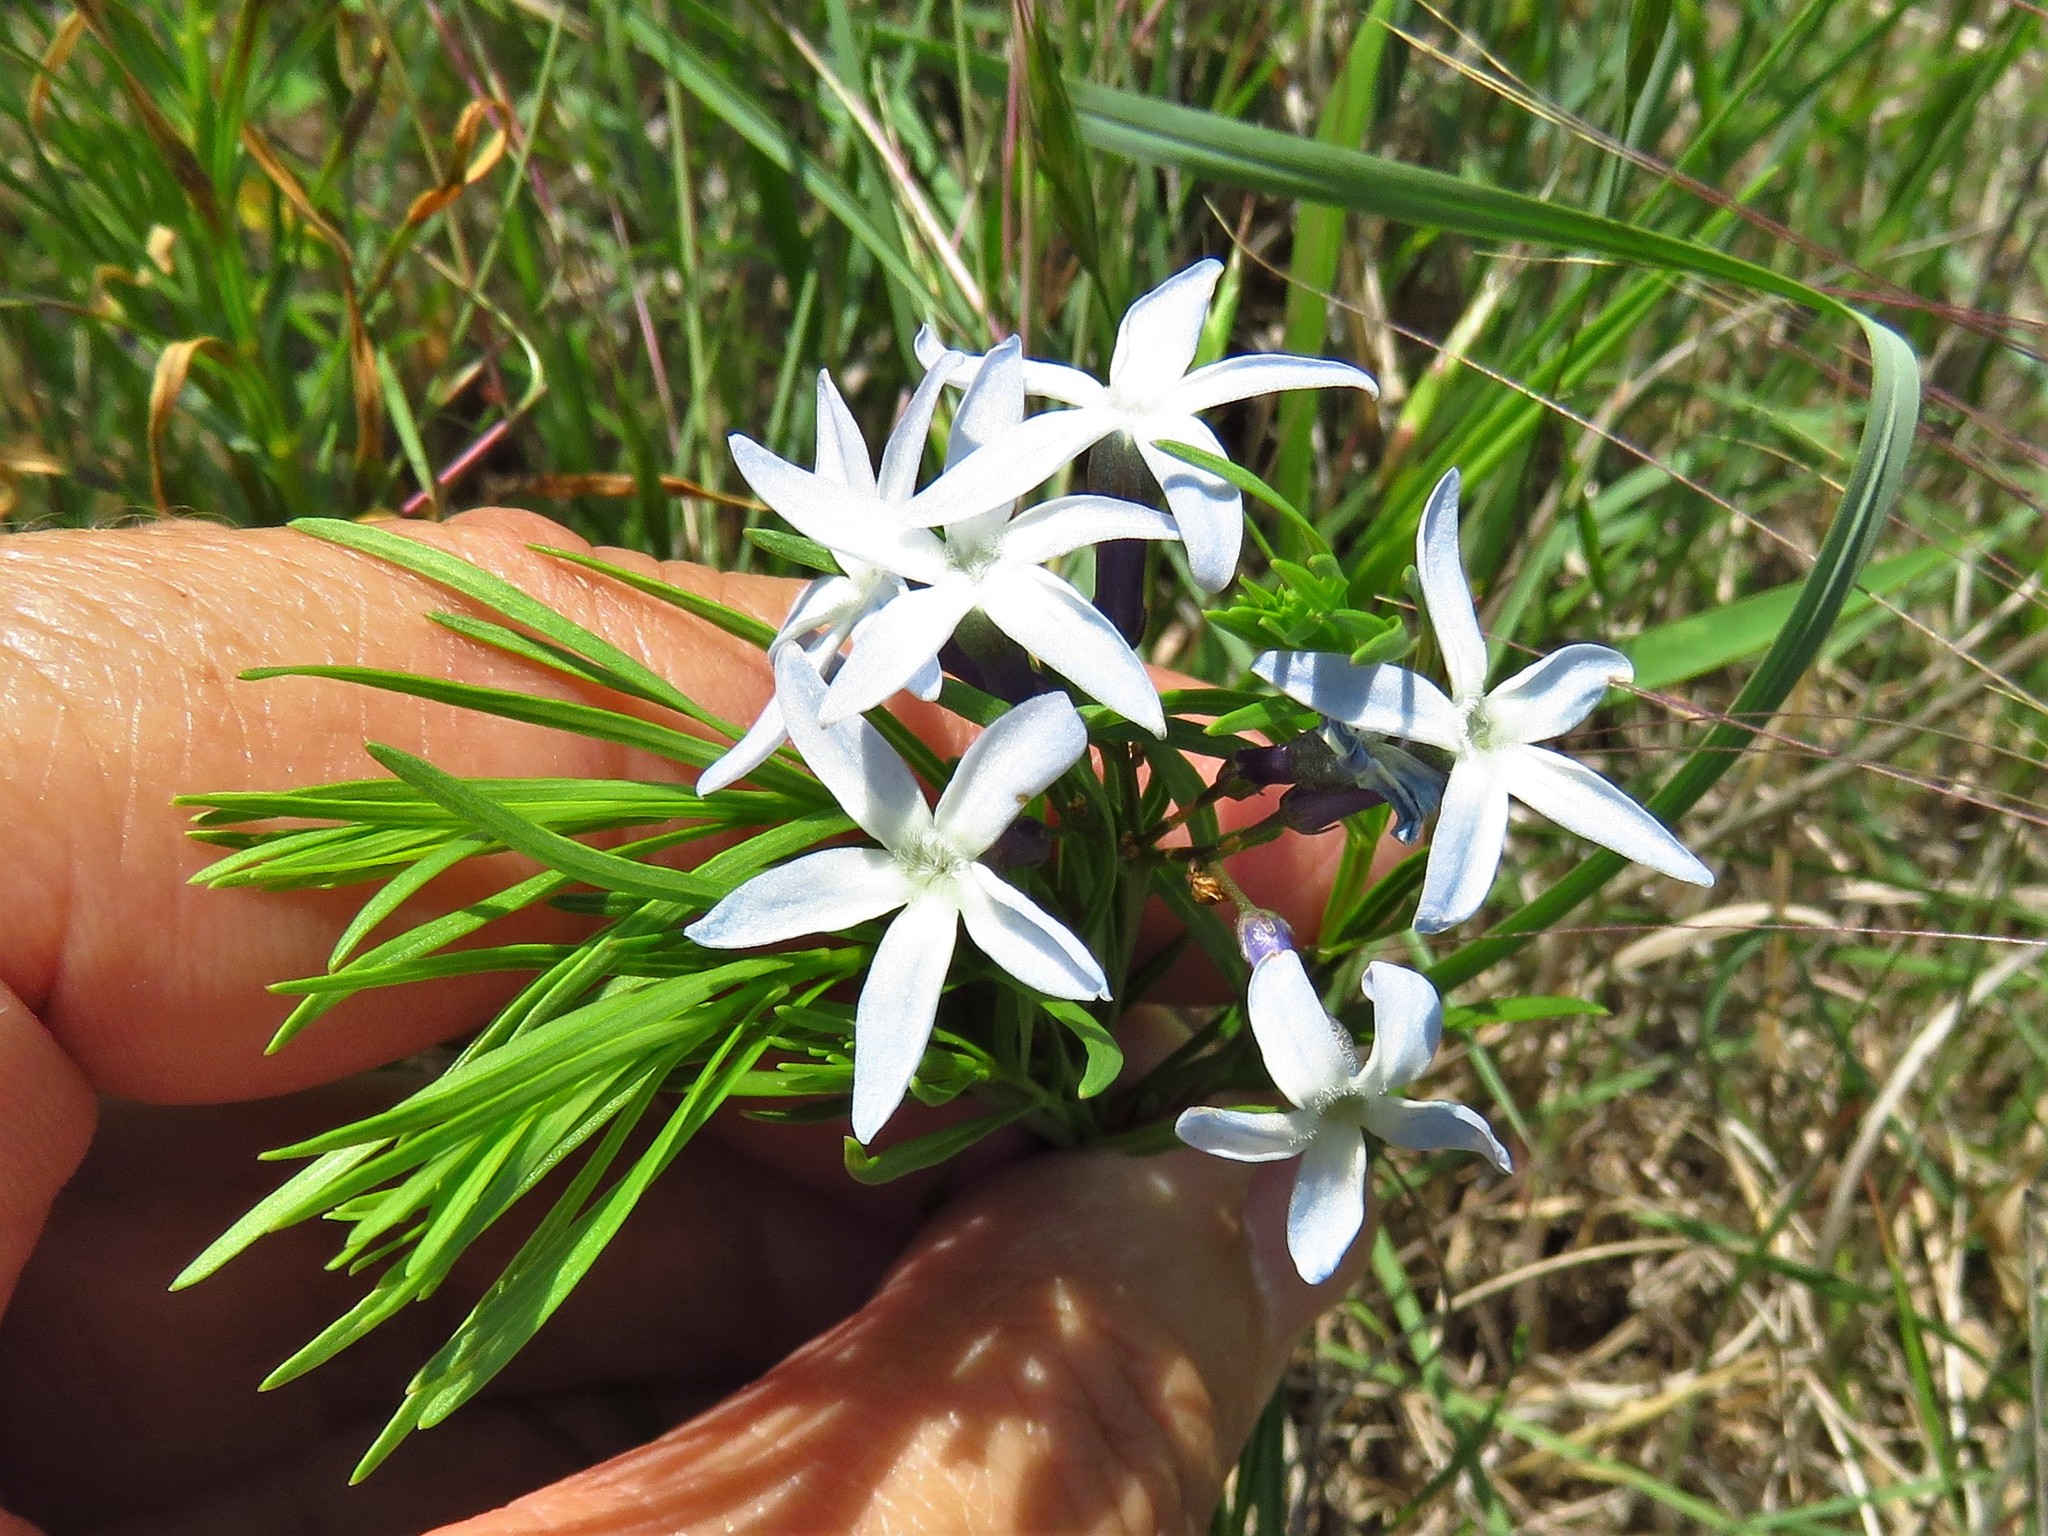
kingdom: Plantae
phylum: Tracheophyta
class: Magnoliopsida
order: Gentianales
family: Apocynaceae
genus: Amsonia
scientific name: Amsonia ciliata
